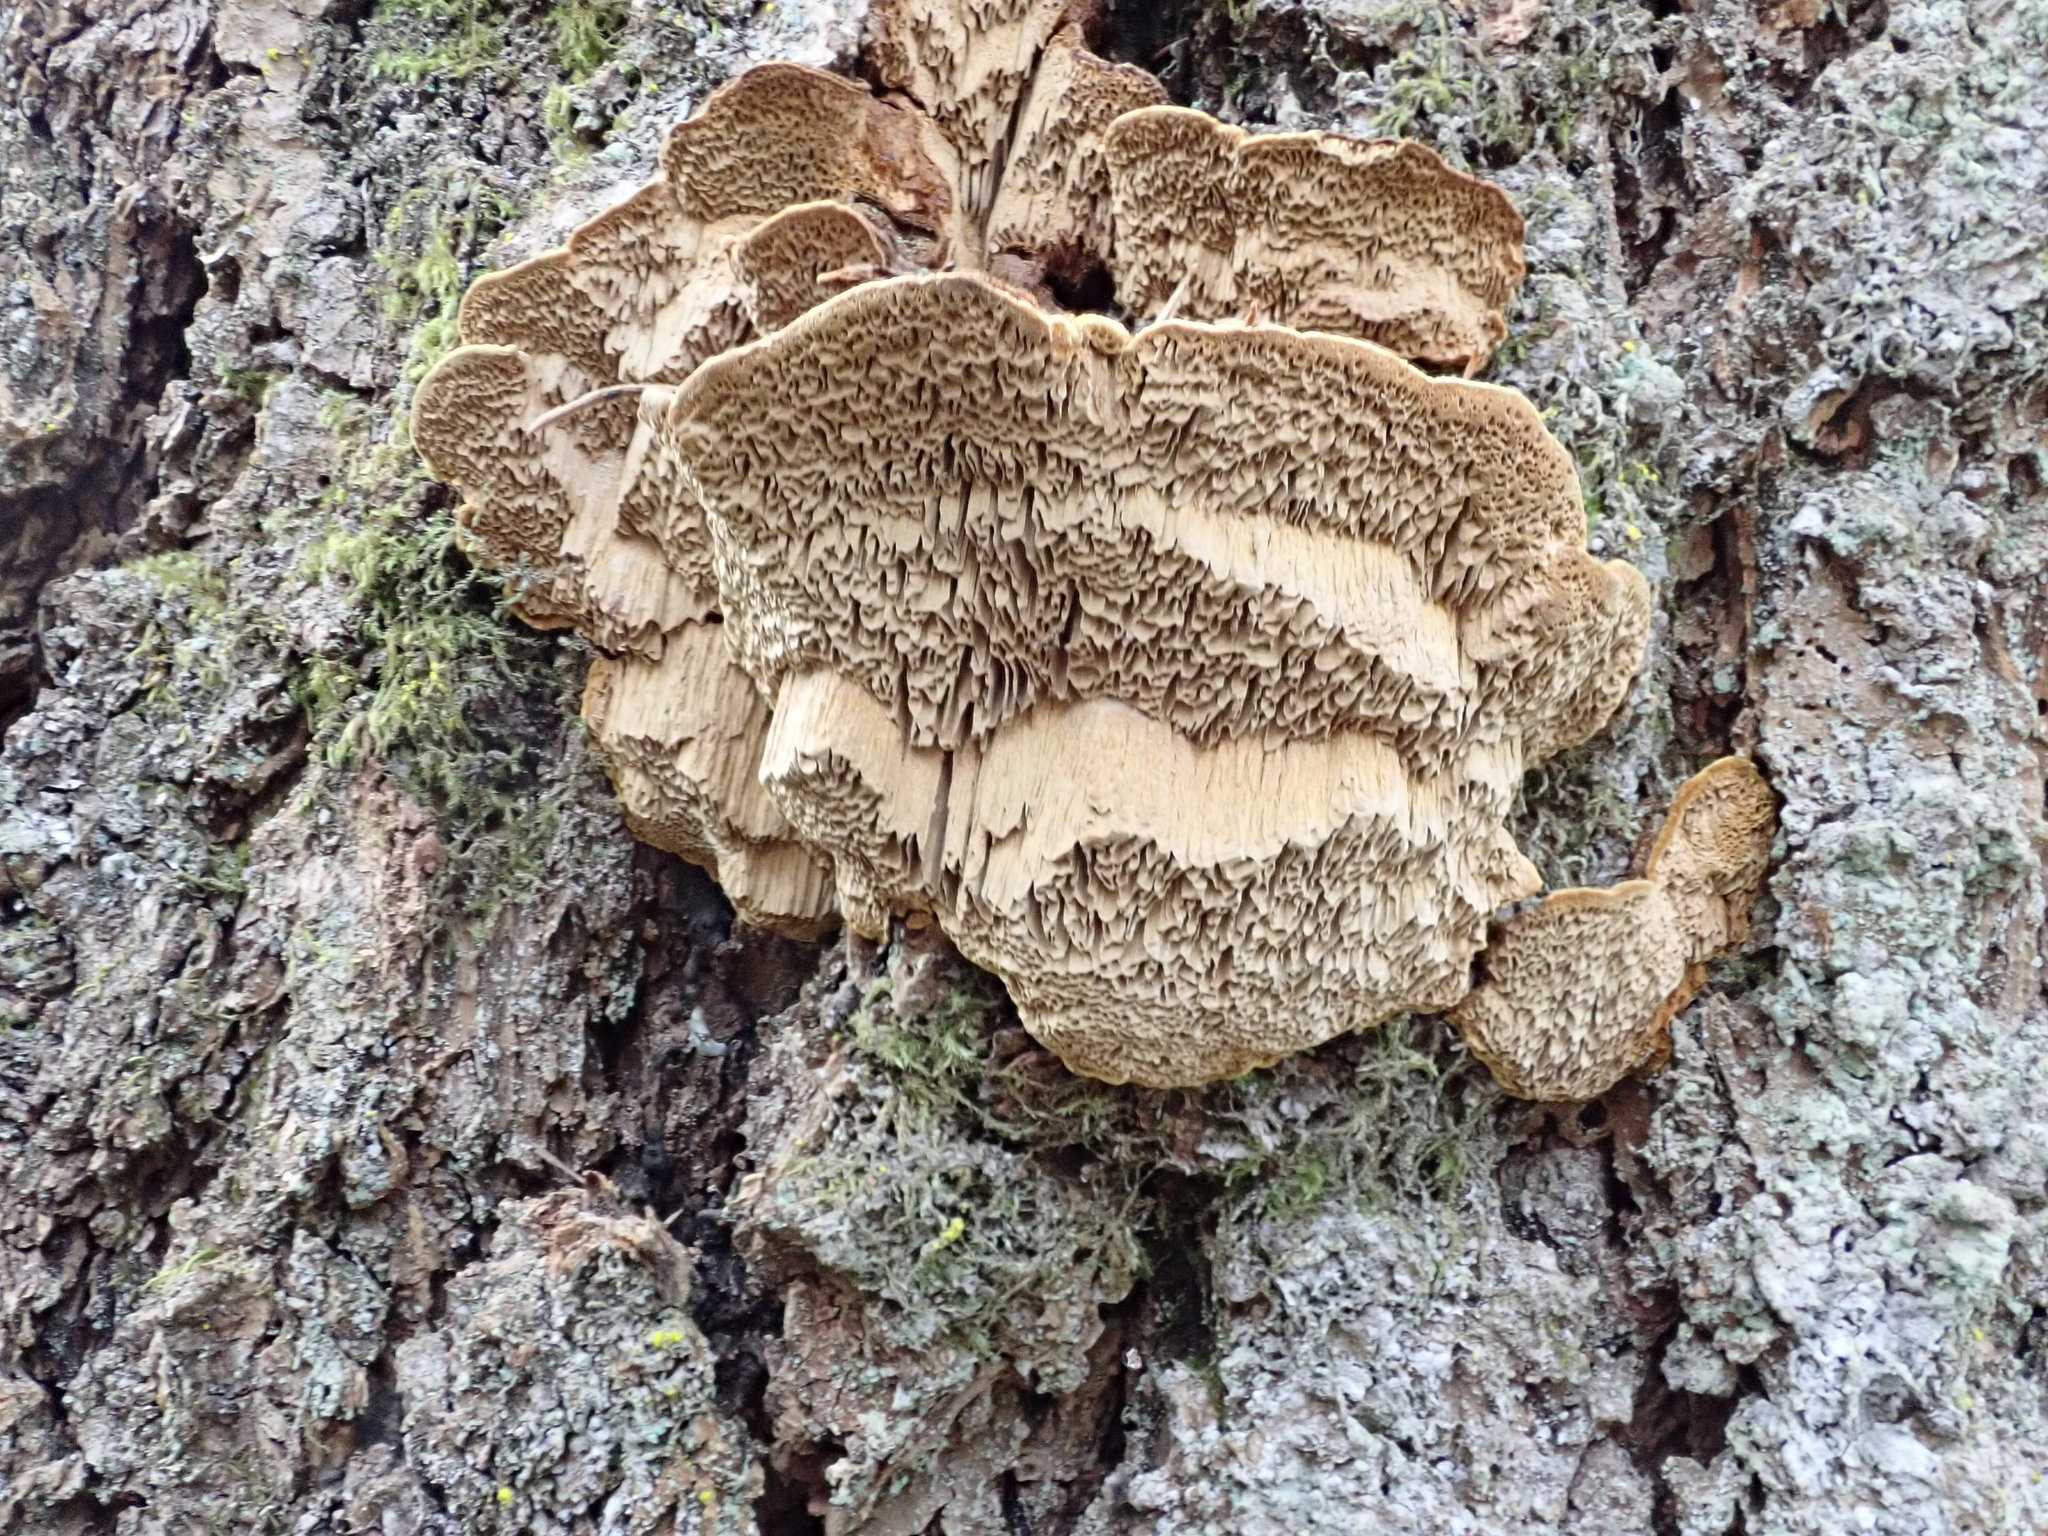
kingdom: Fungi
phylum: Basidiomycota
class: Agaricomycetes
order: Polyporales
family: Irpicaceae
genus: Irpex
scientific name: Irpex lacteus
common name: Milk-white toothed polypore
